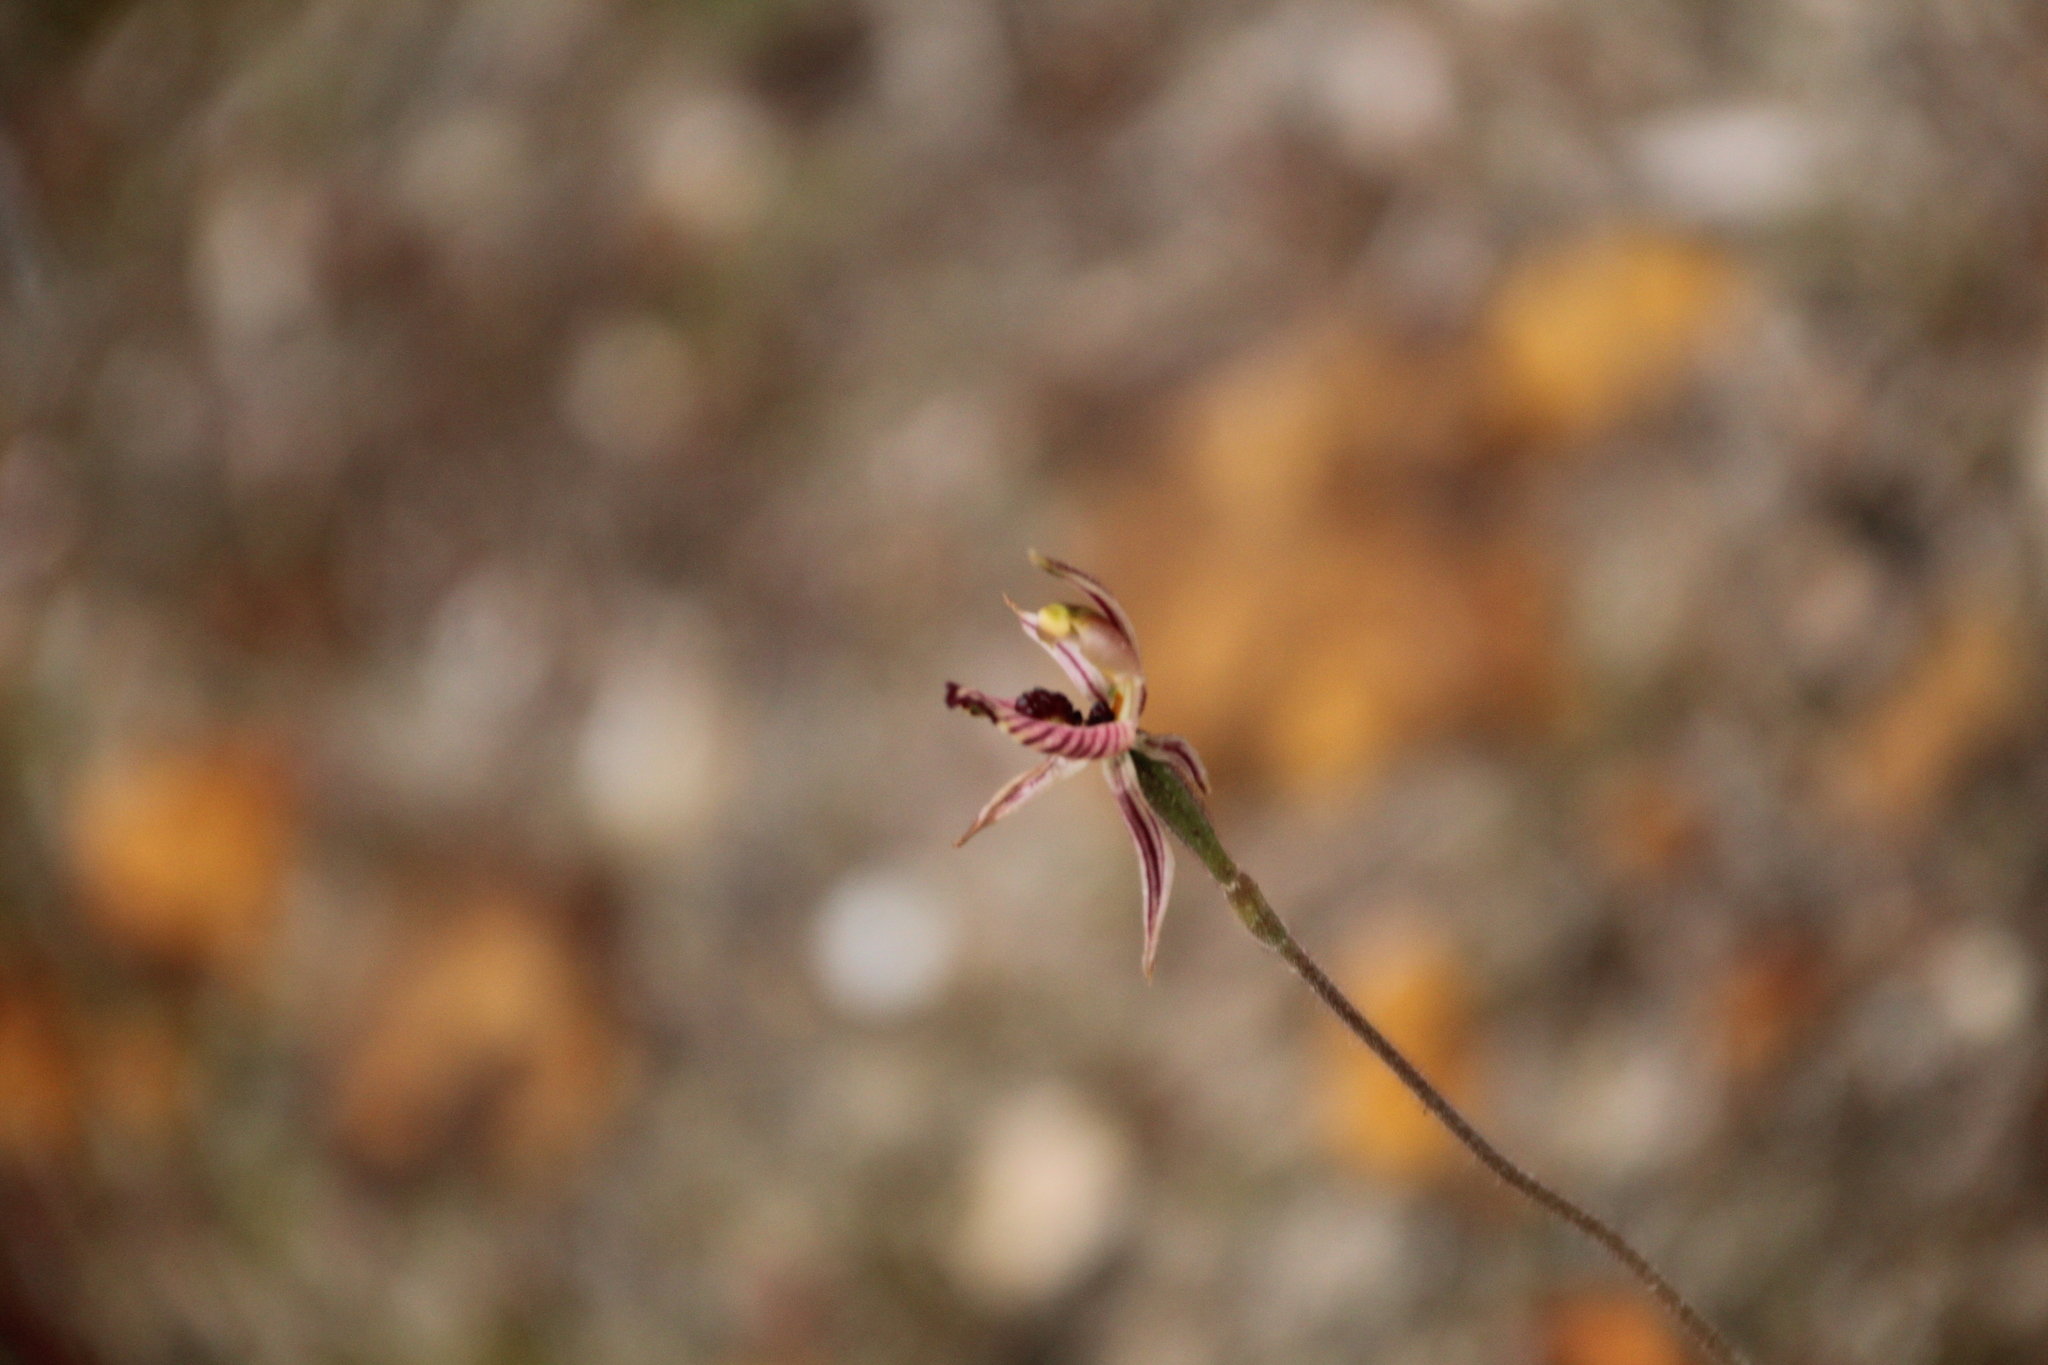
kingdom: Plantae
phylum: Tracheophyta
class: Liliopsida
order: Asparagales
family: Orchidaceae
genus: Caladenia
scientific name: Caladenia cairnsiana
